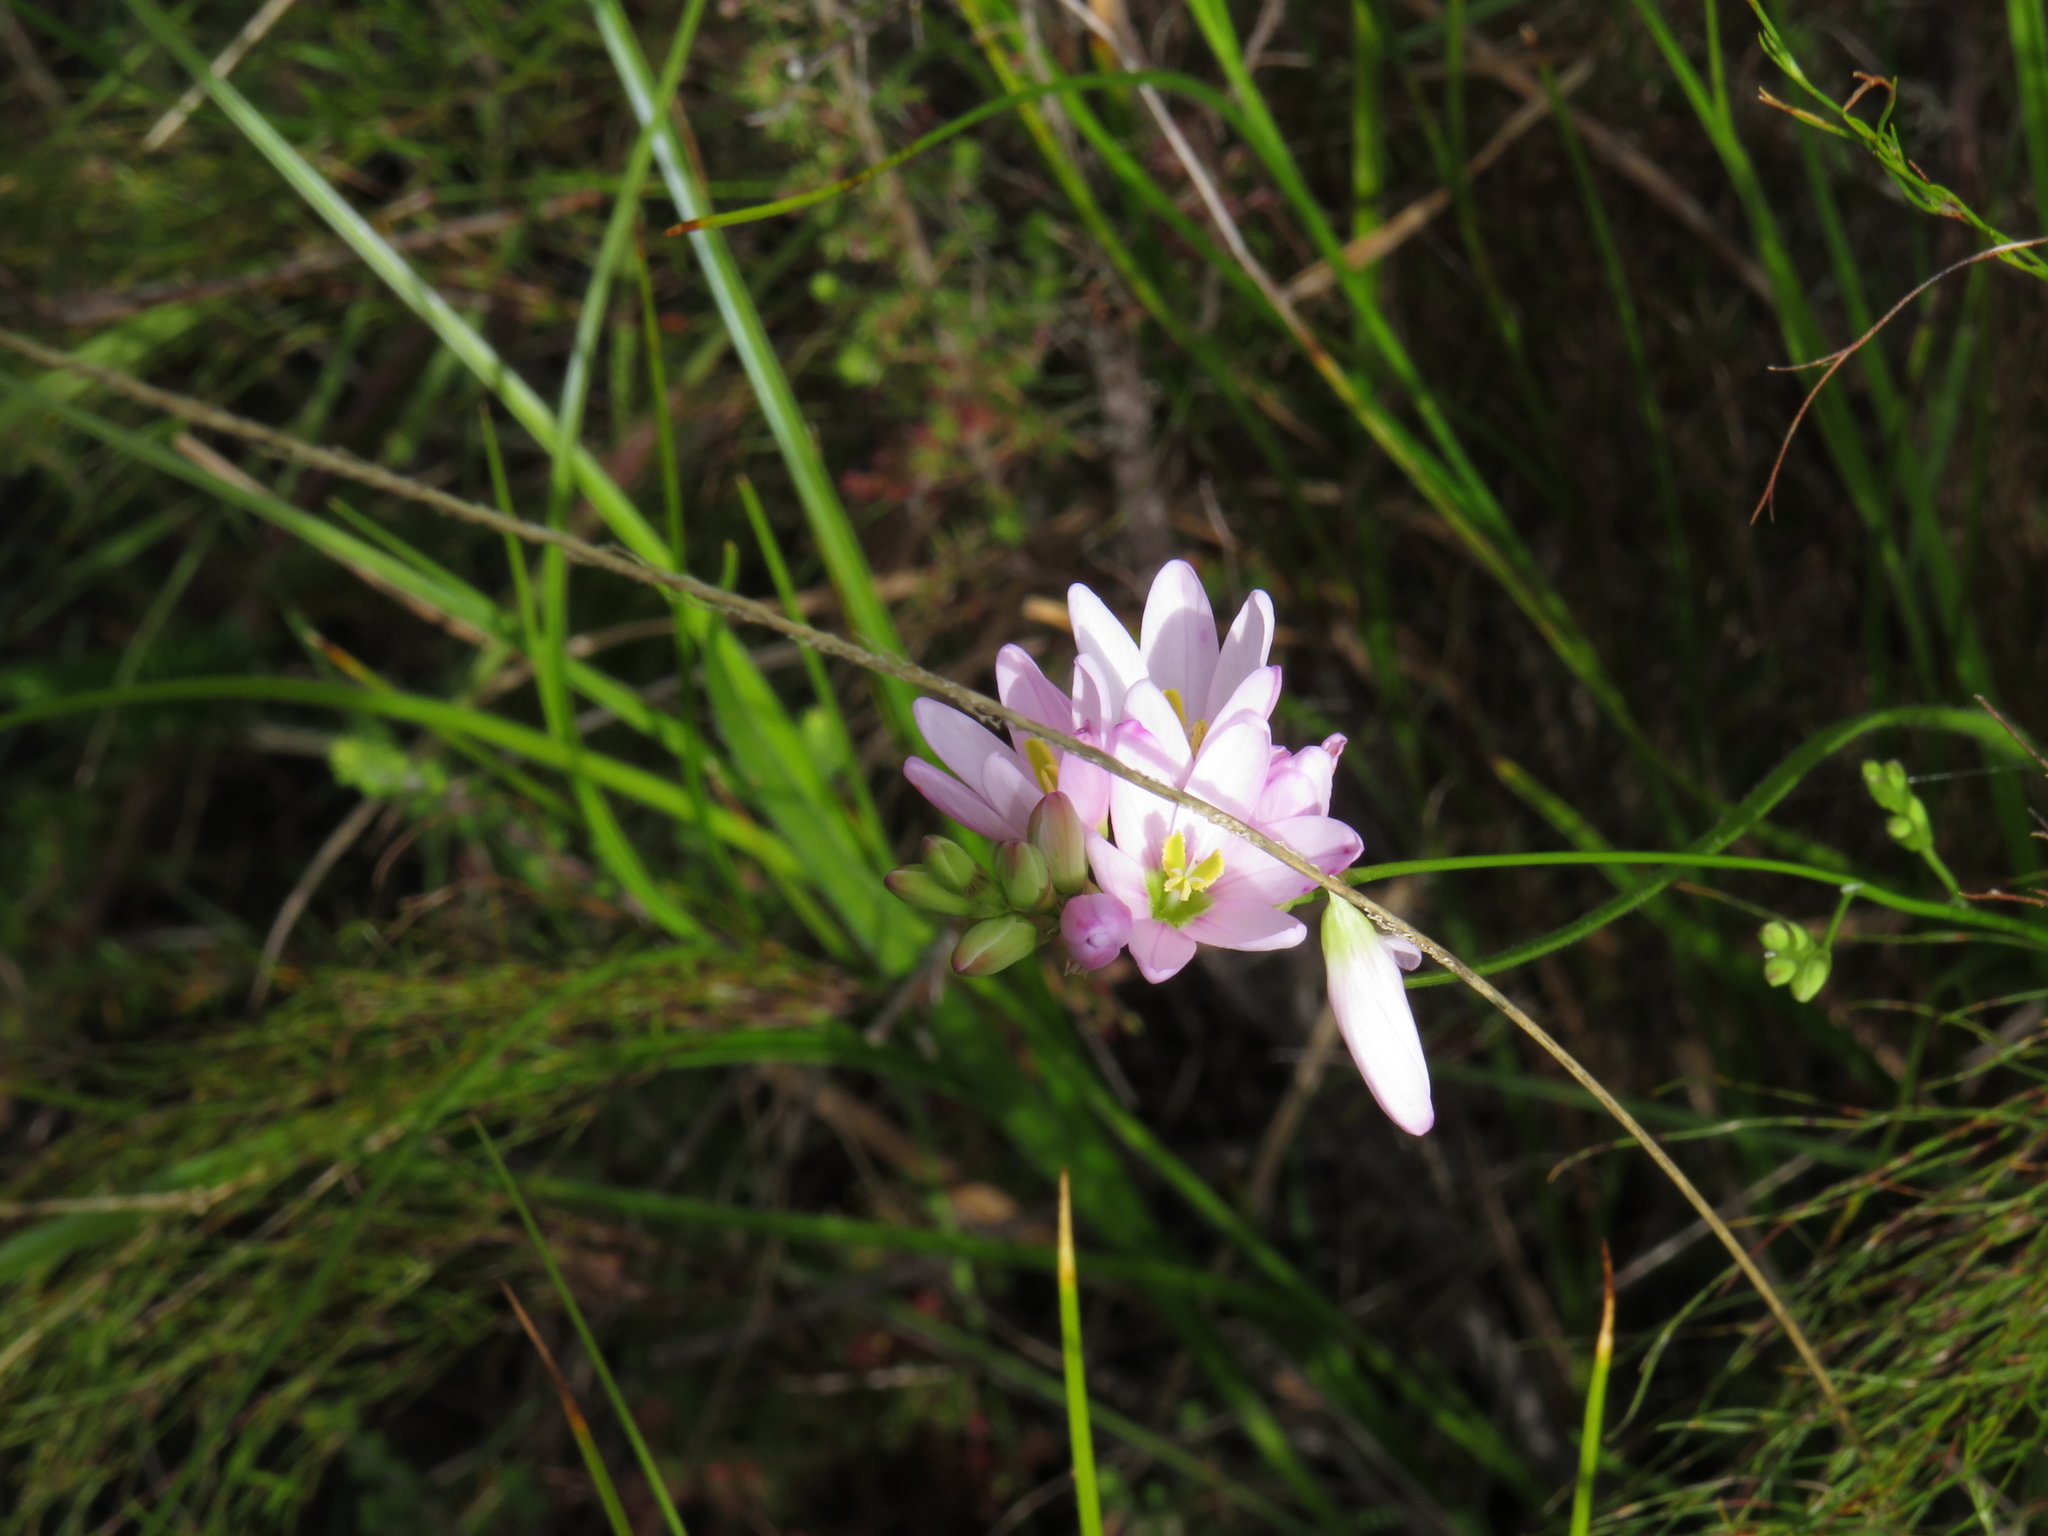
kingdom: Plantae
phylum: Tracheophyta
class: Liliopsida
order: Asparagales
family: Iridaceae
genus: Ixia
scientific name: Ixia flexuosa
